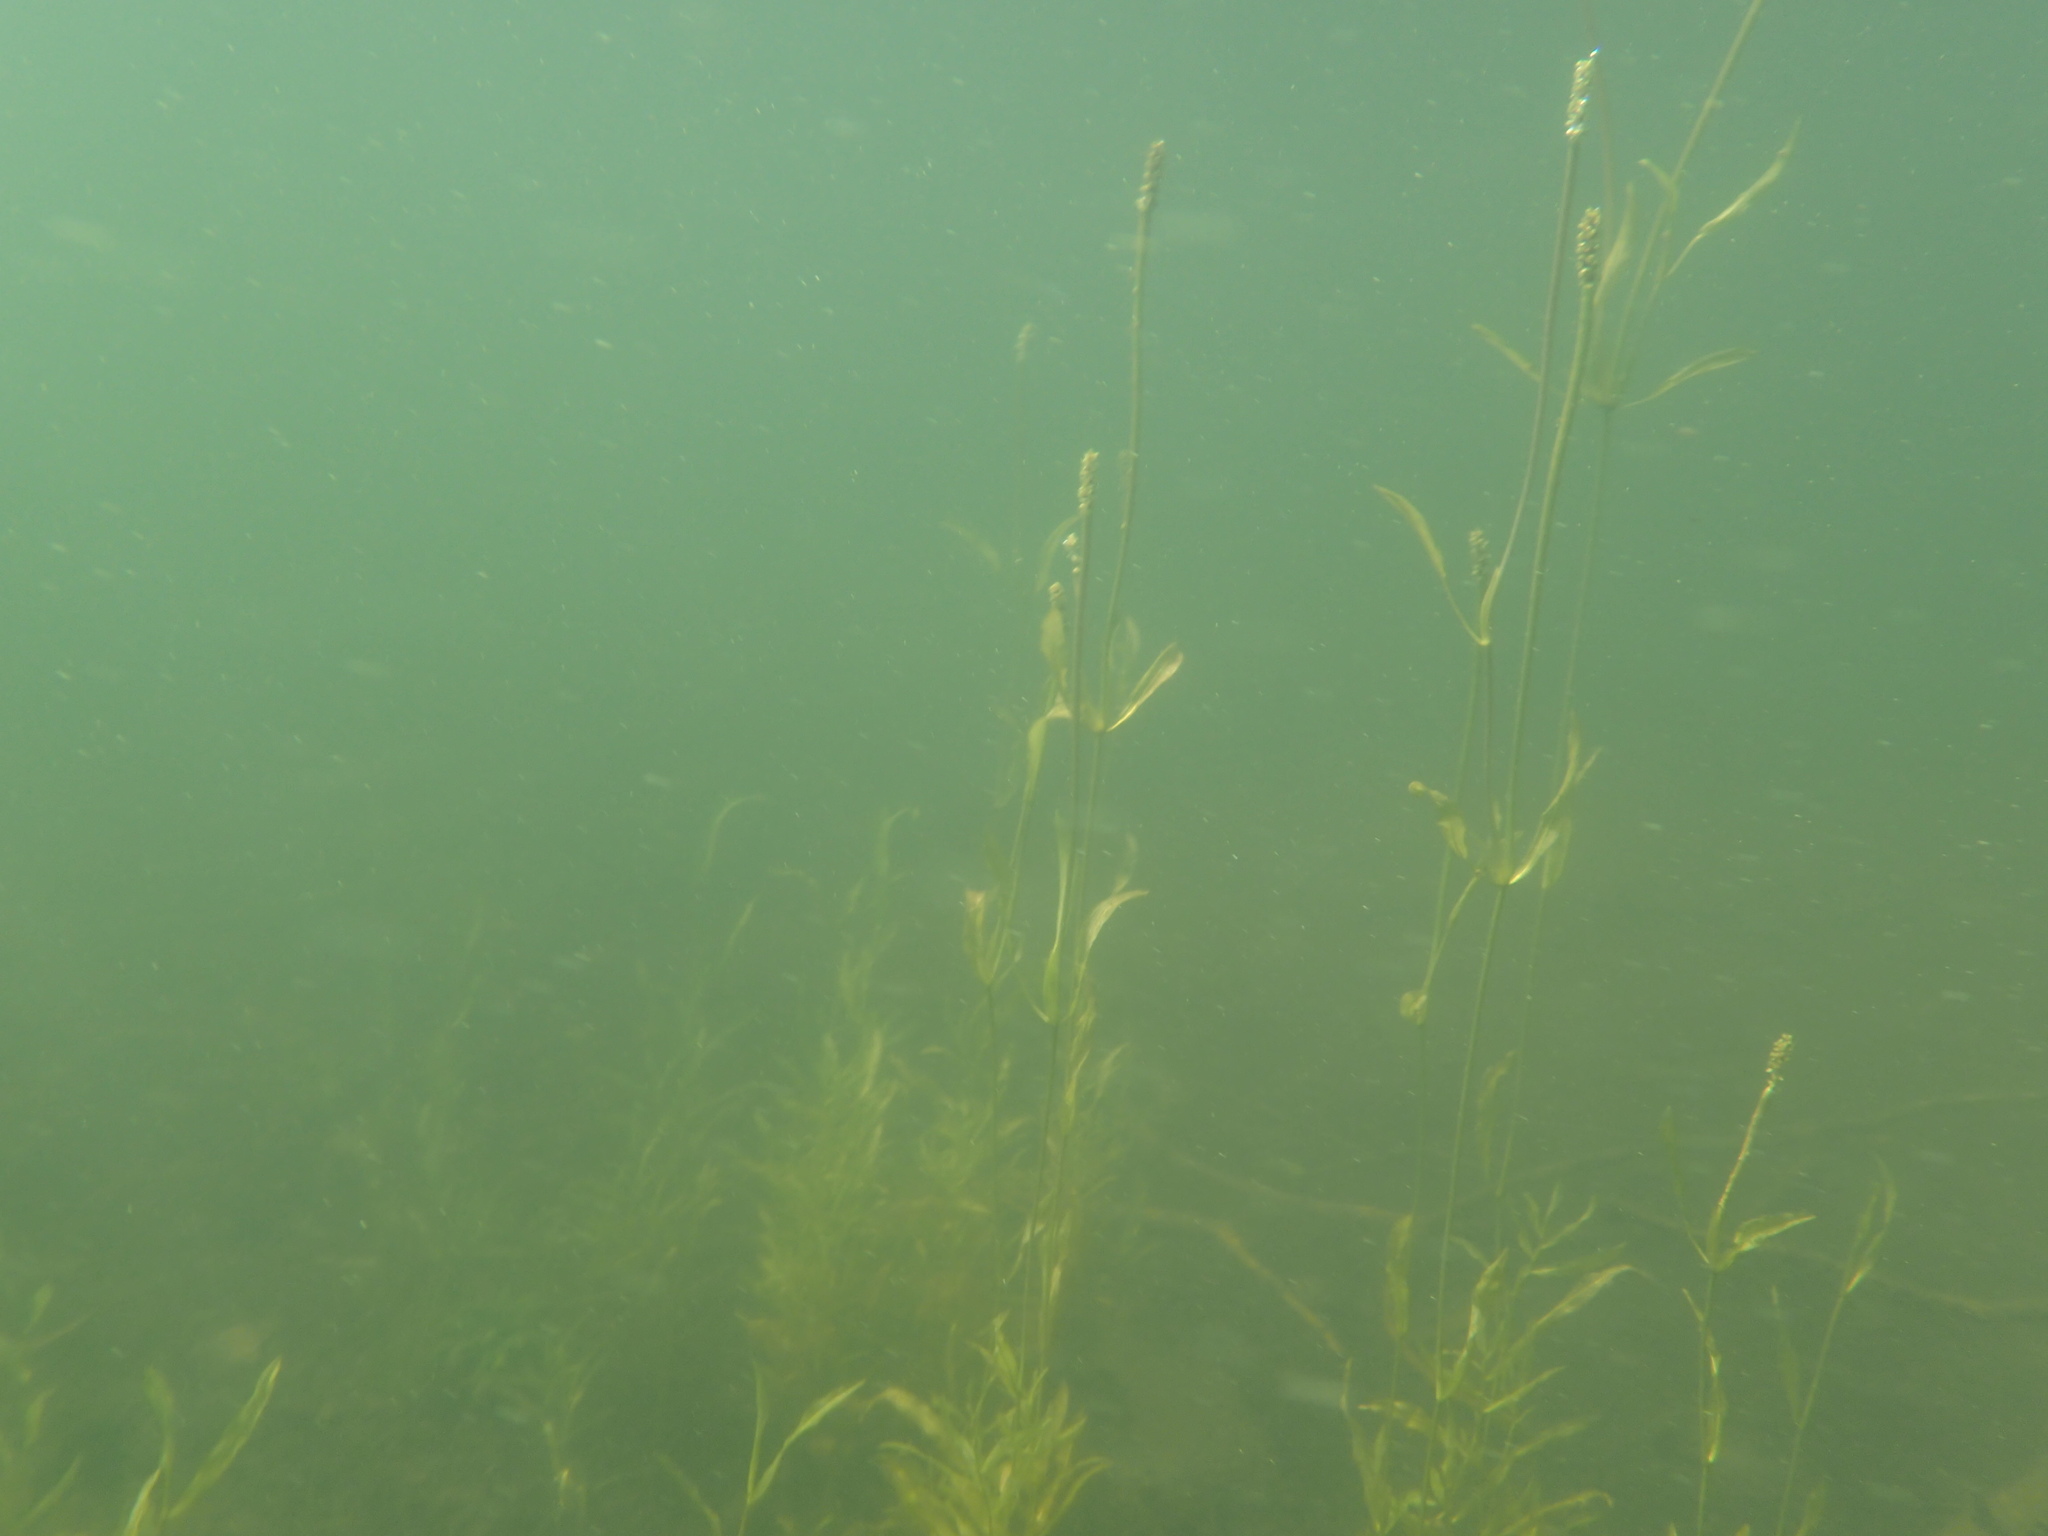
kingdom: Plantae
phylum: Tracheophyta
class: Liliopsida
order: Alismatales
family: Potamogetonaceae
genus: Potamogeton
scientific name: Potamogeton gramineus
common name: Various-leaved pondweed
